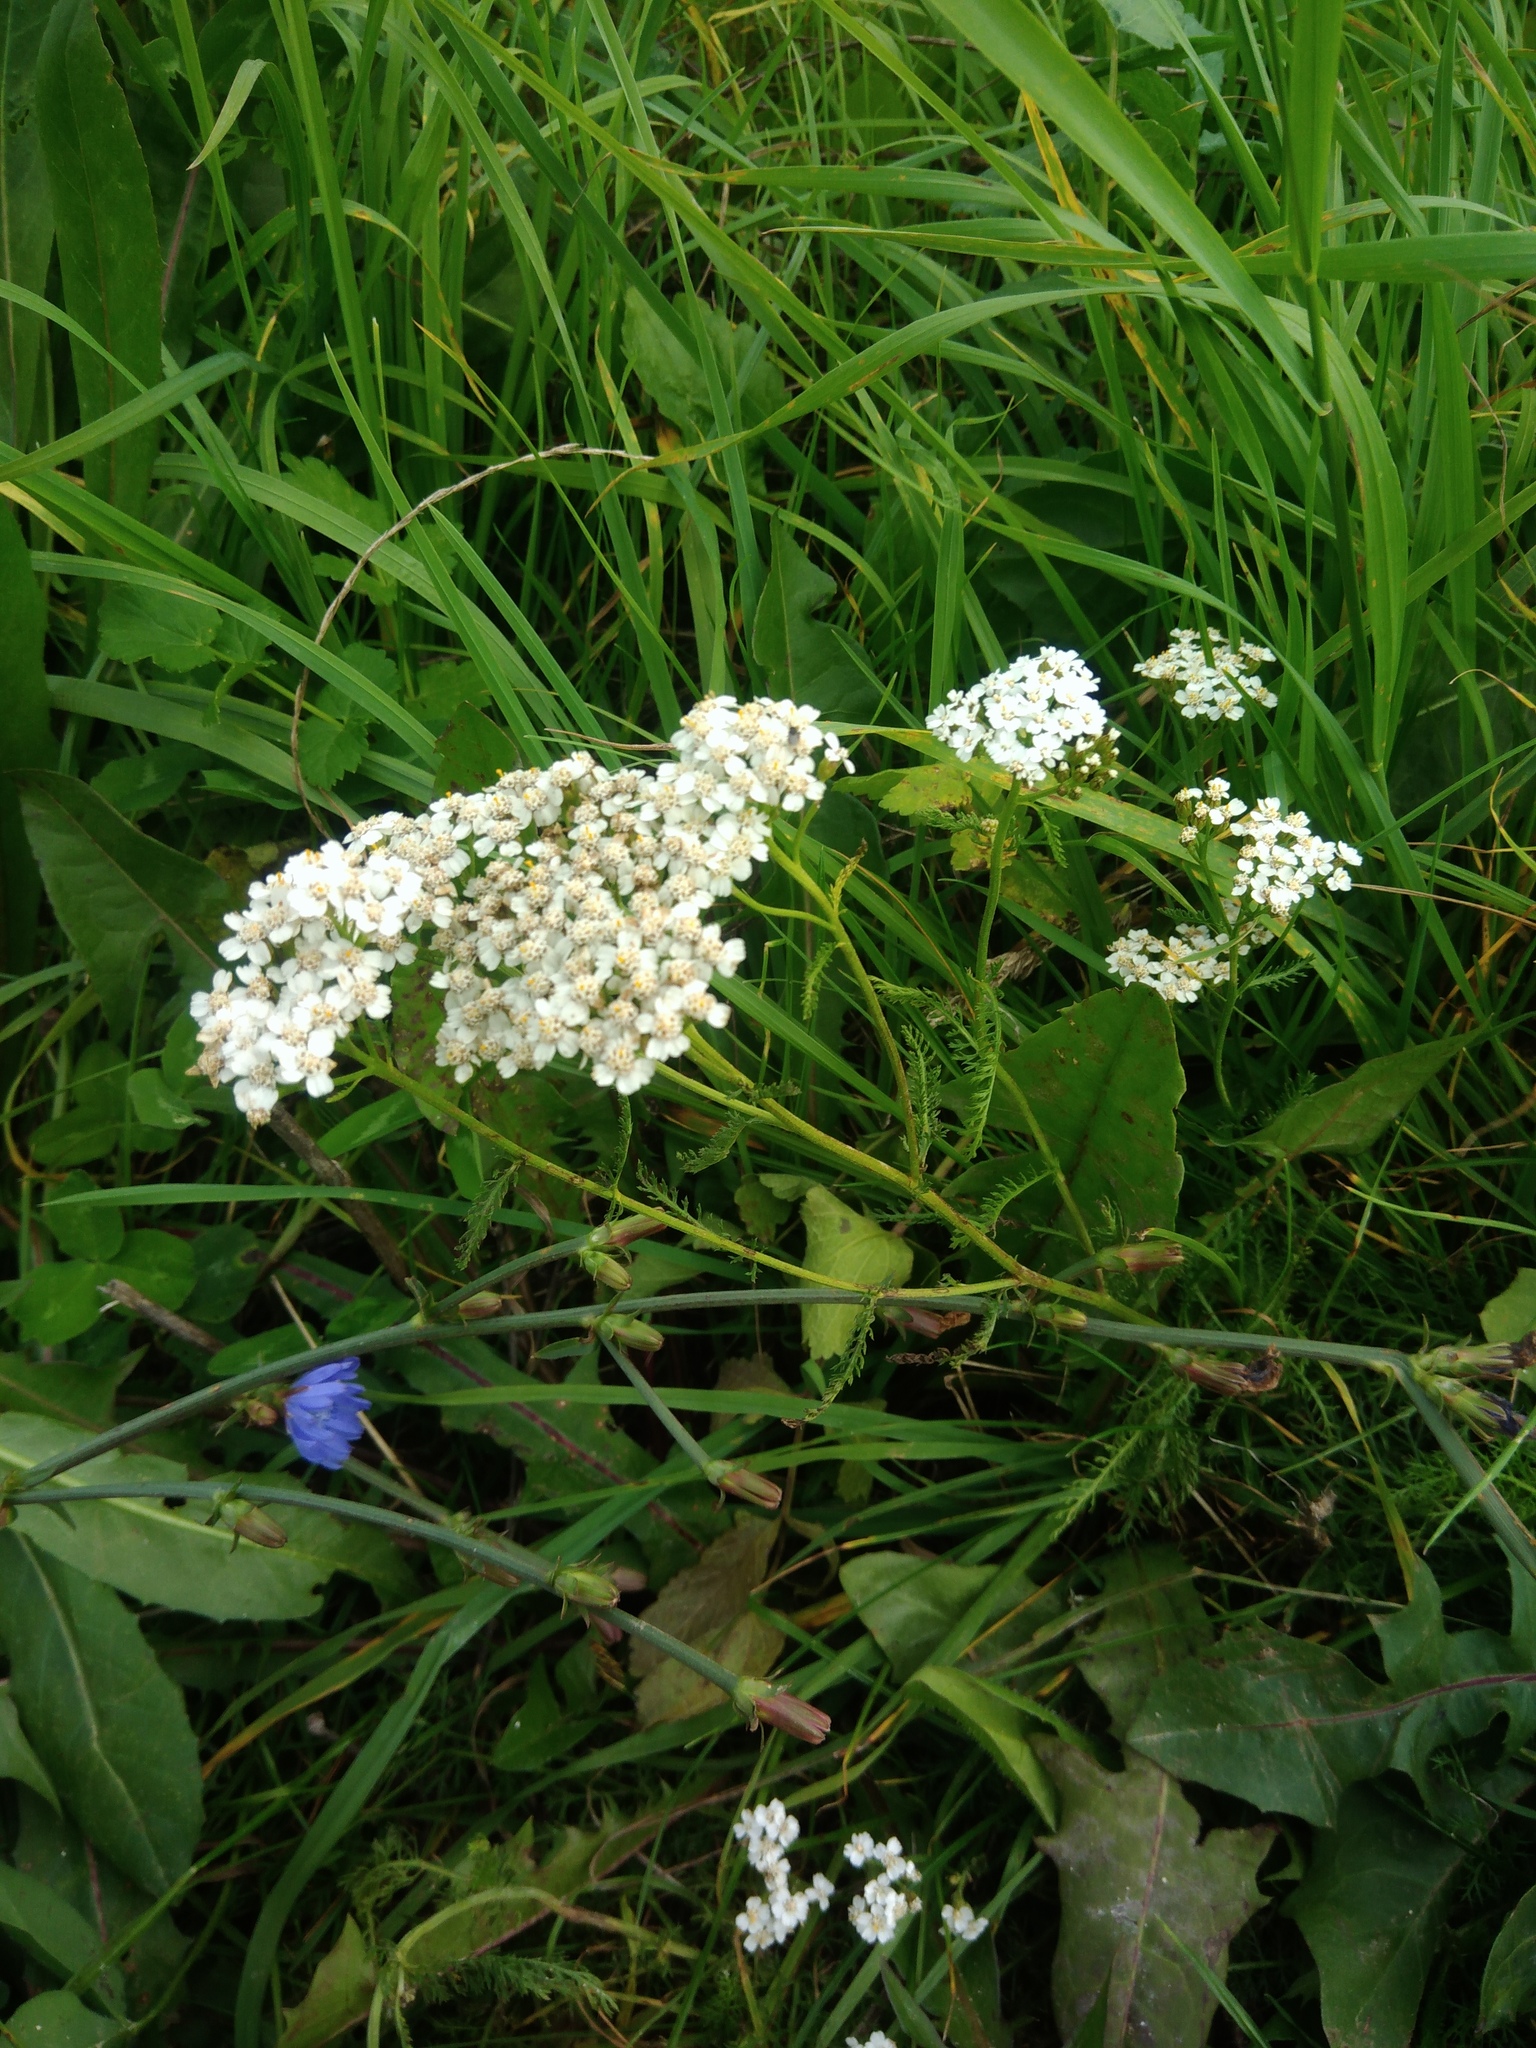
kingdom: Plantae
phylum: Tracheophyta
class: Magnoliopsida
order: Asterales
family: Asteraceae
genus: Achillea
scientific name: Achillea millefolium
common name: Yarrow
